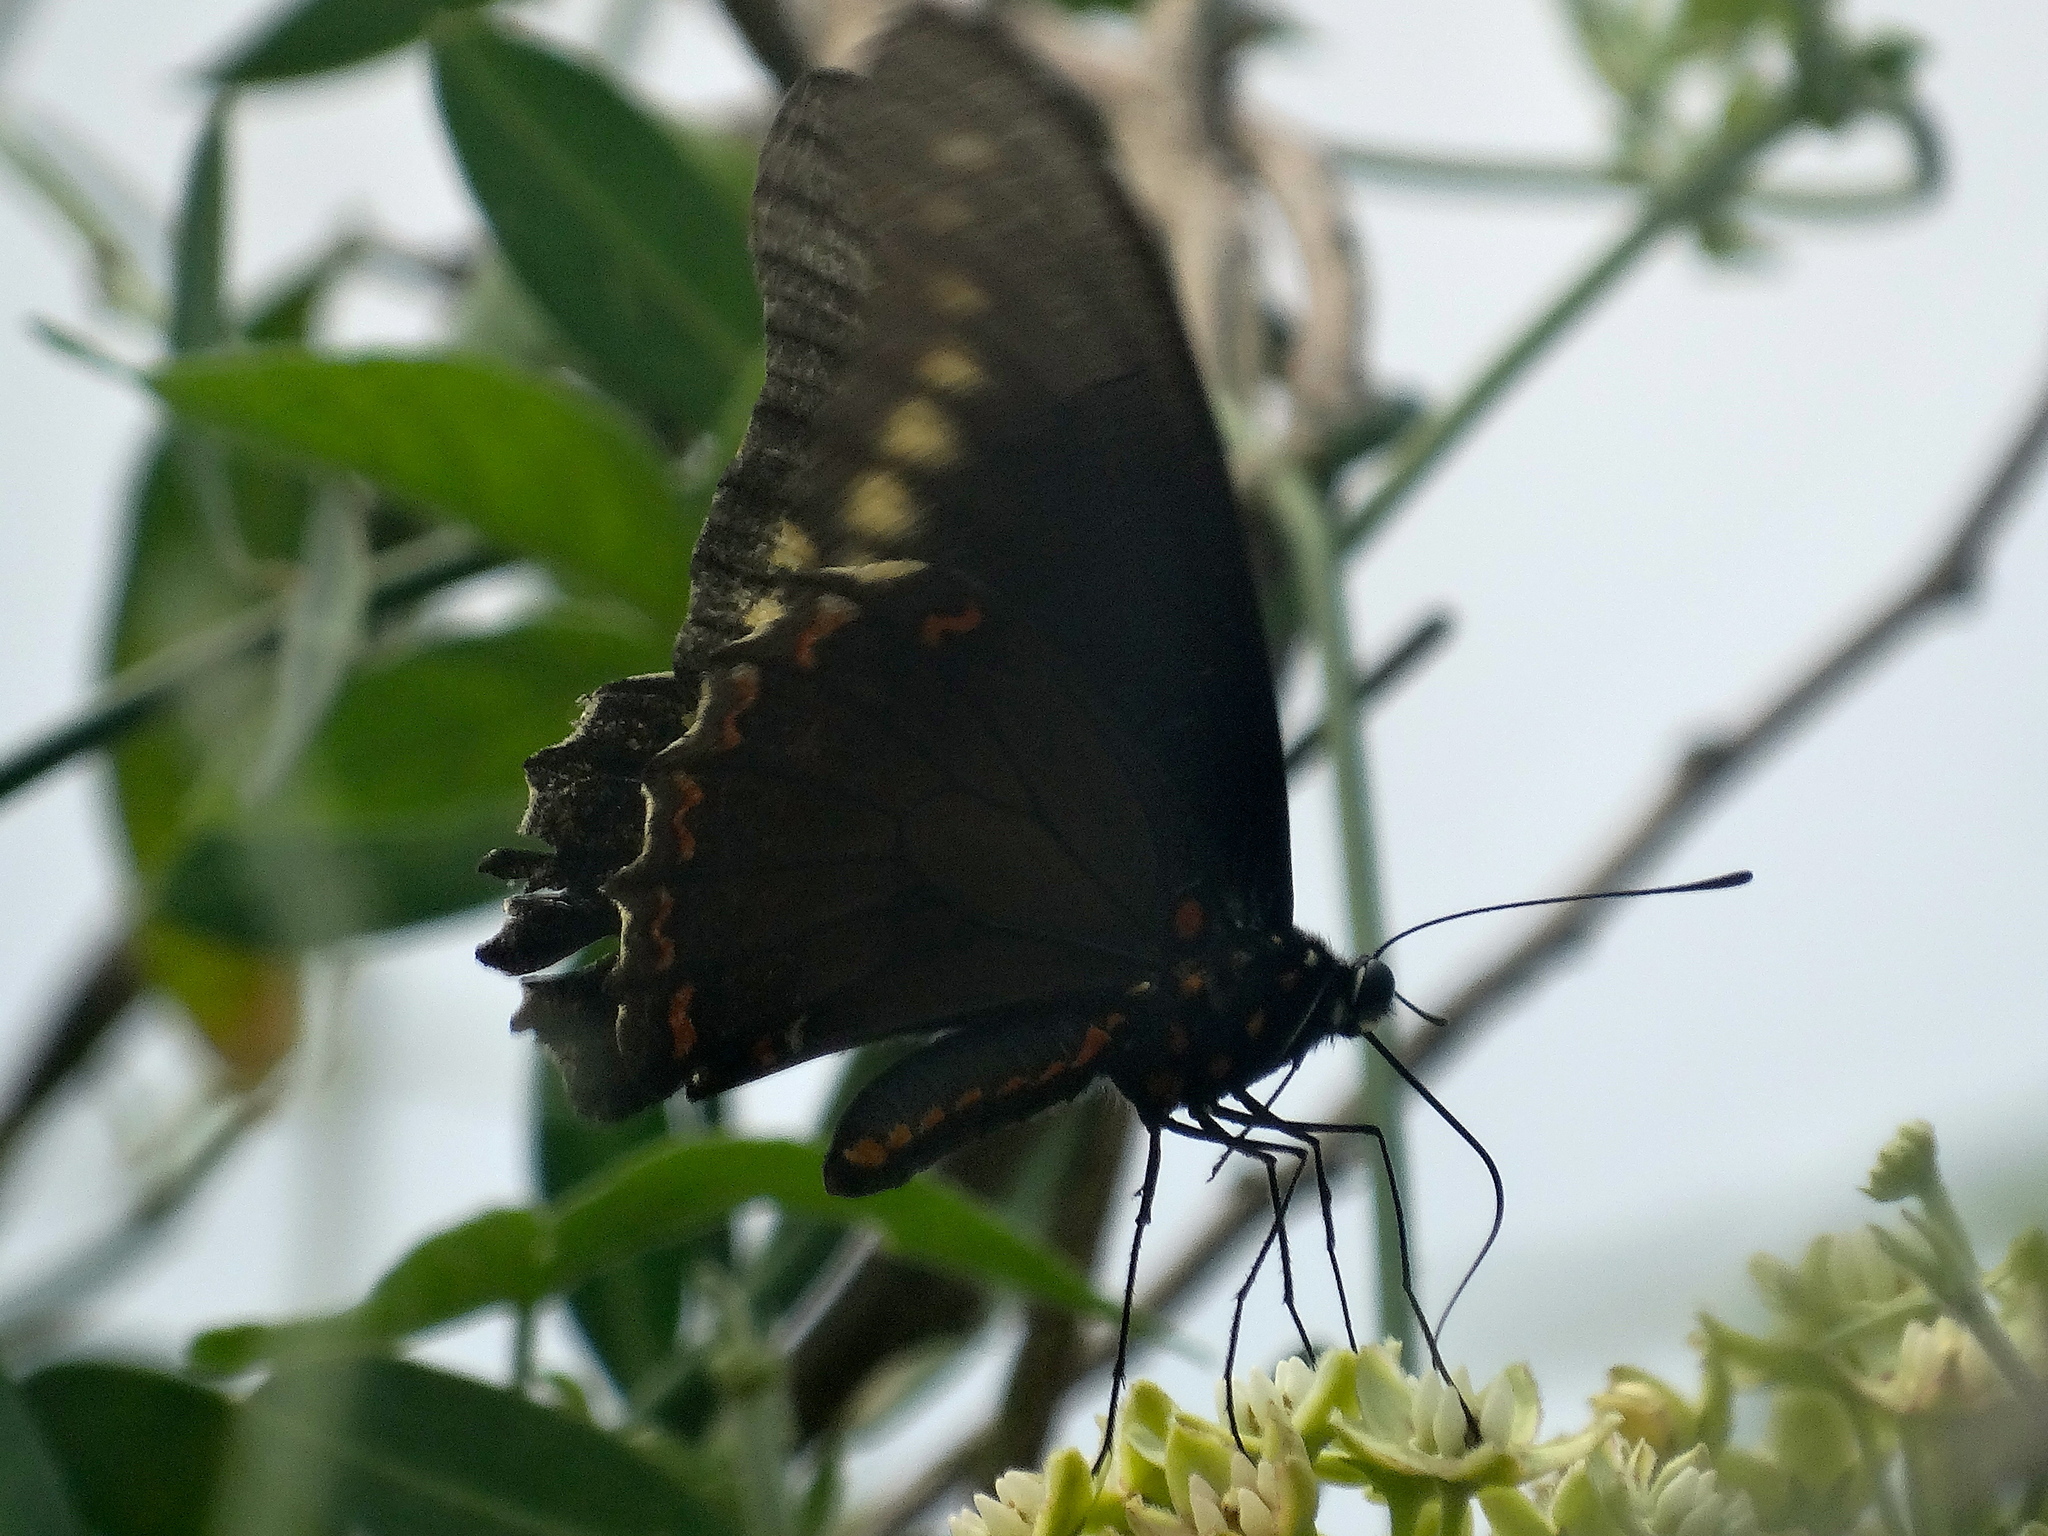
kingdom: Animalia
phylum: Arthropoda
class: Insecta
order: Lepidoptera
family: Papilionidae
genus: Battus
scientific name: Battus polydamas
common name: Polydamas swallowtail
